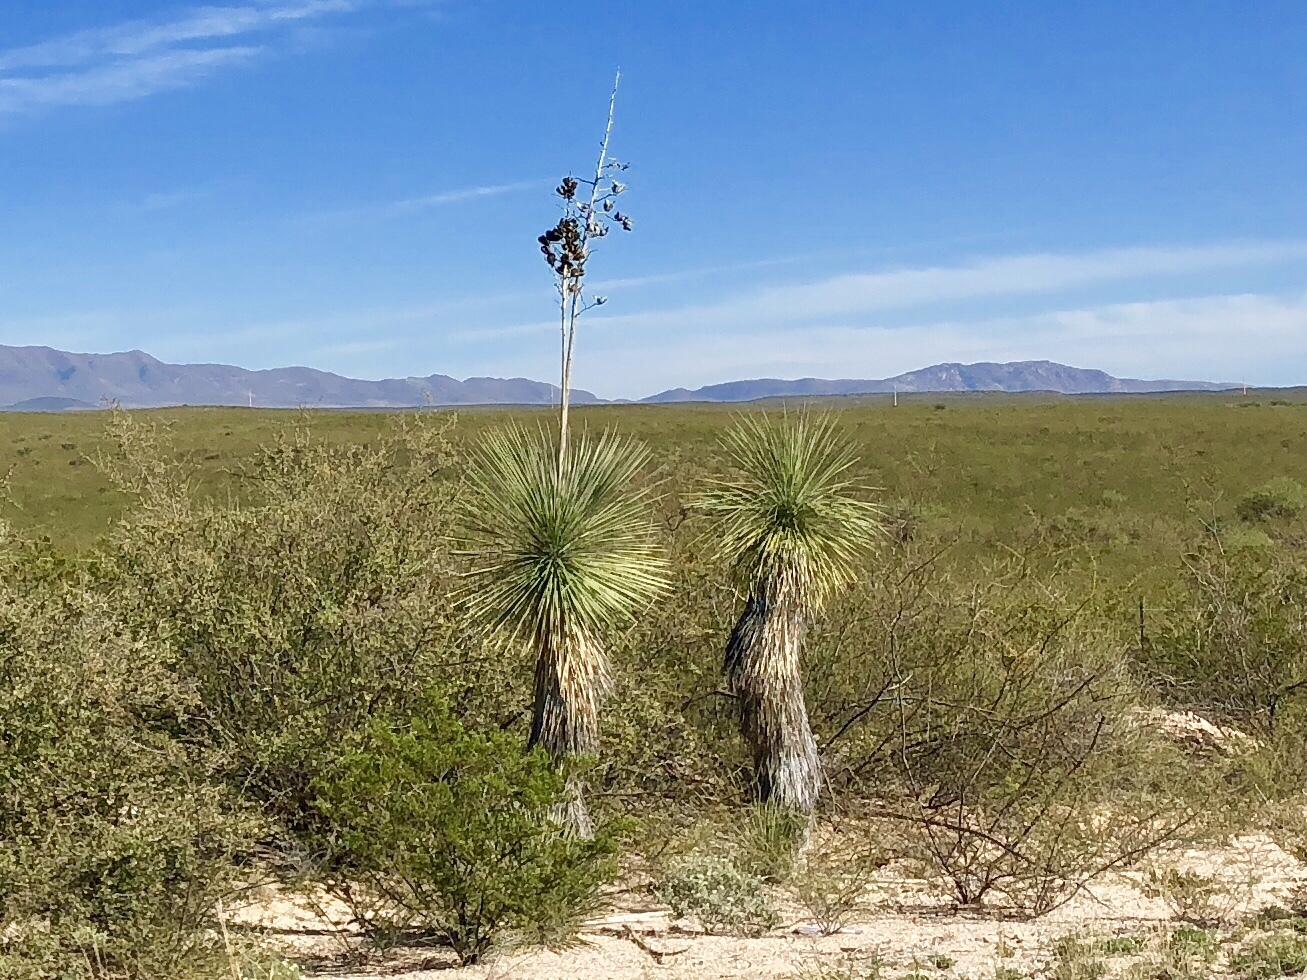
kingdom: Plantae
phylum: Tracheophyta
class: Liliopsida
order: Asparagales
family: Asparagaceae
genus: Yucca
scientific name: Yucca elata
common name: Palmella
